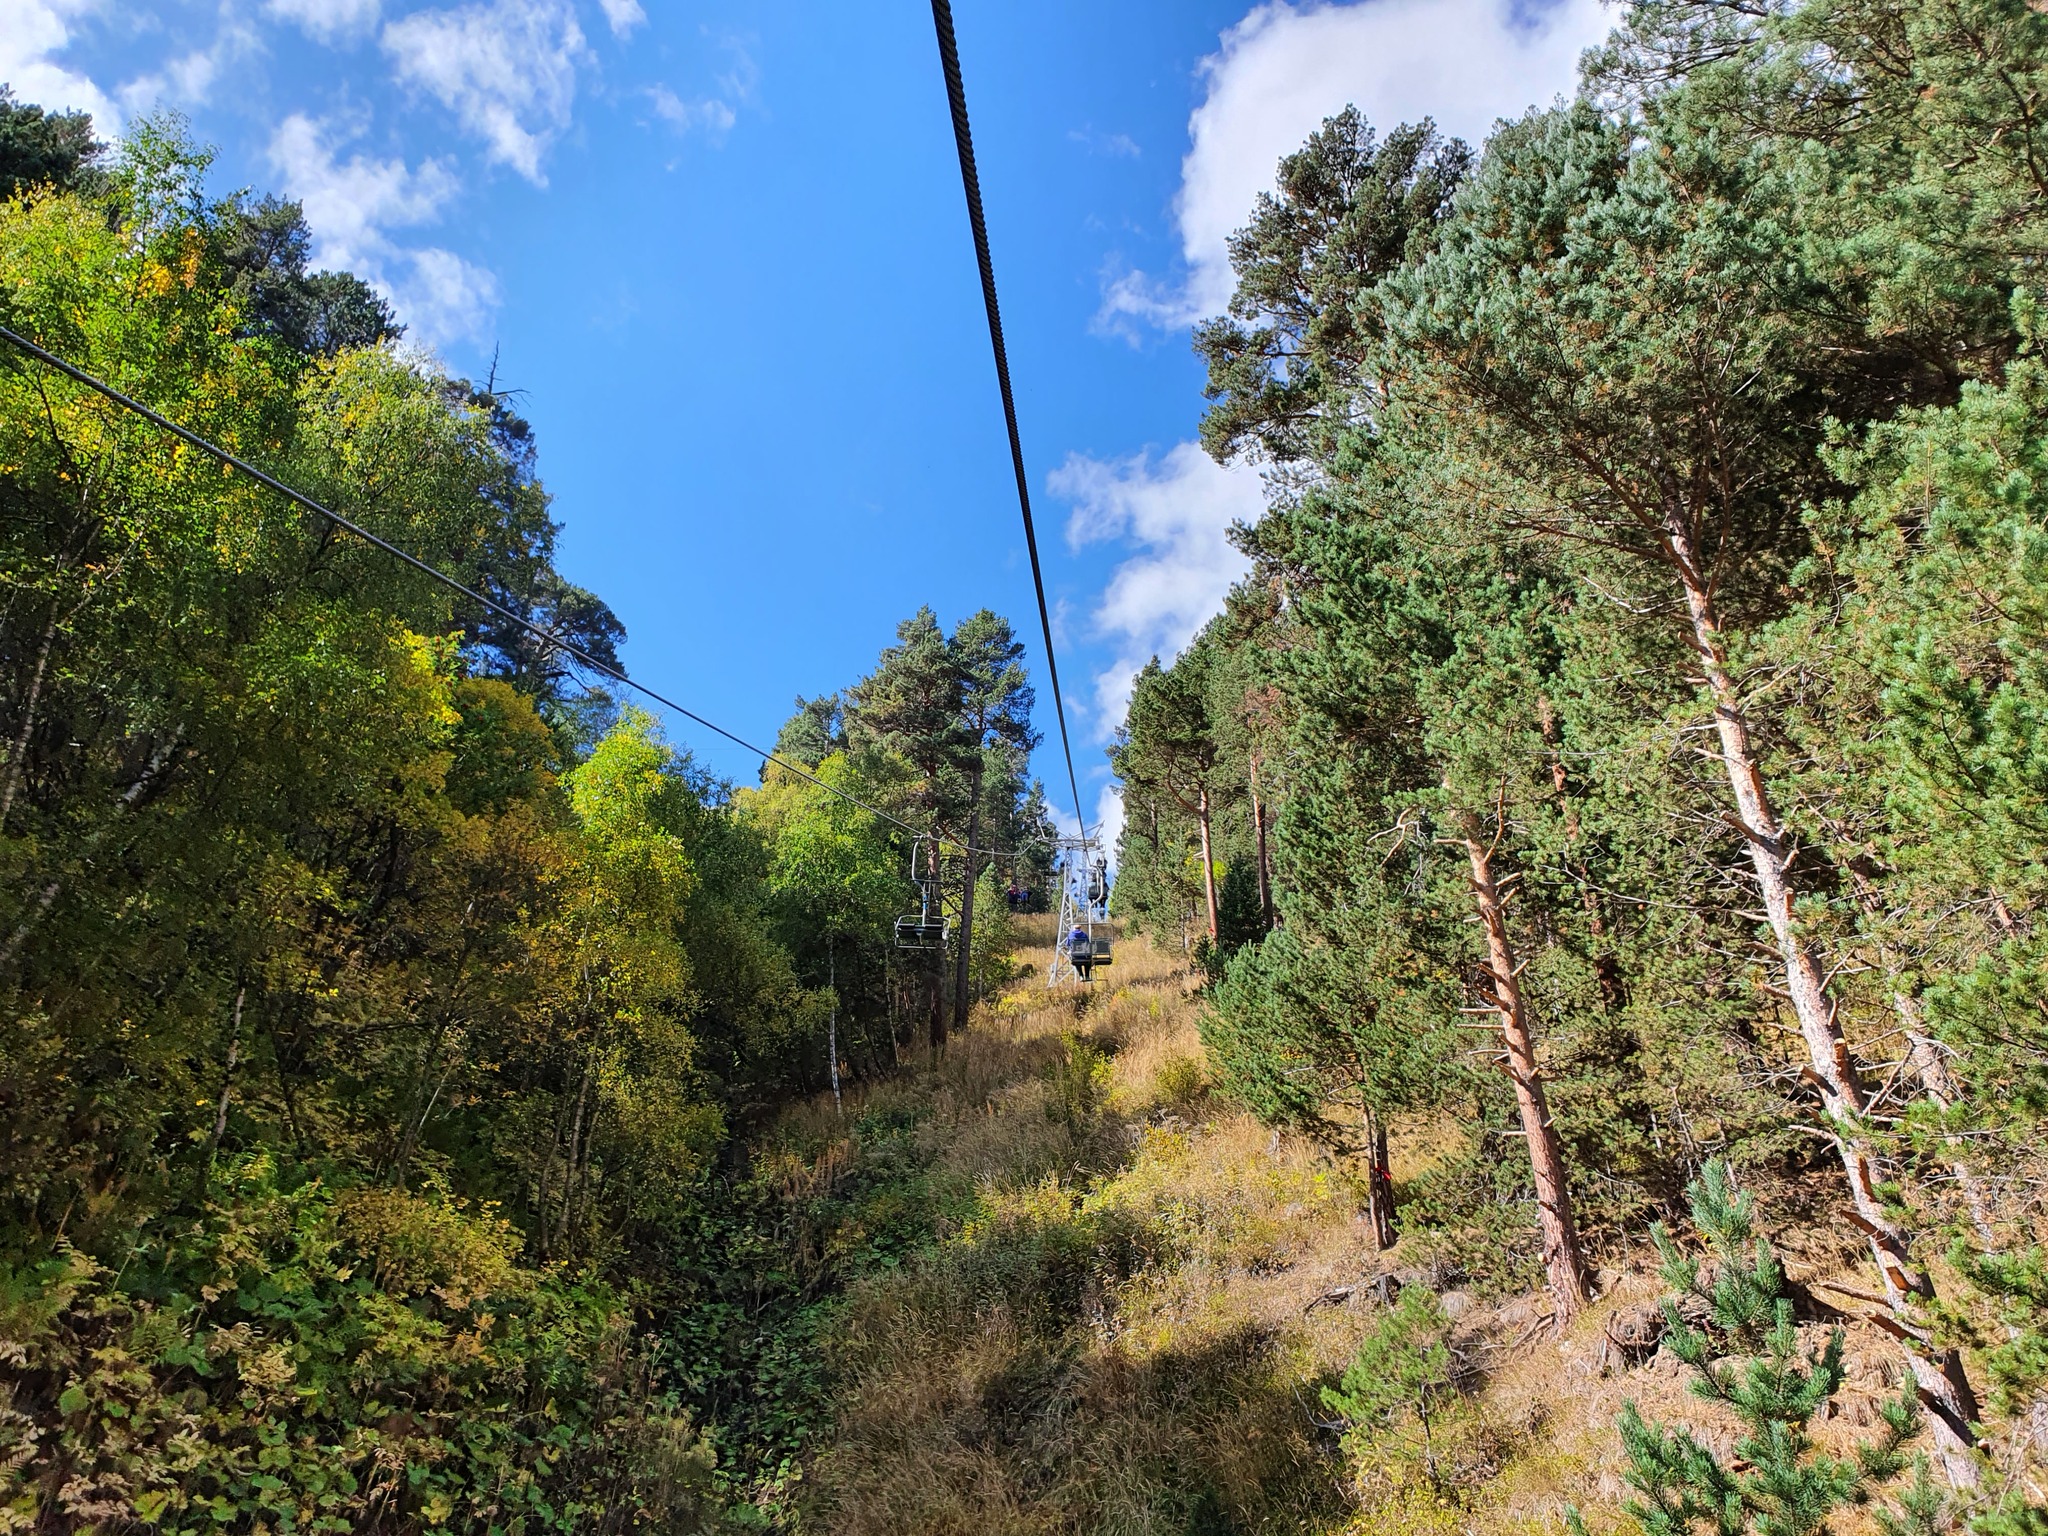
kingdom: Plantae
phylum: Tracheophyta
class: Pinopsida
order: Pinales
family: Pinaceae
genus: Pinus
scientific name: Pinus sylvestris
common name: Scots pine
